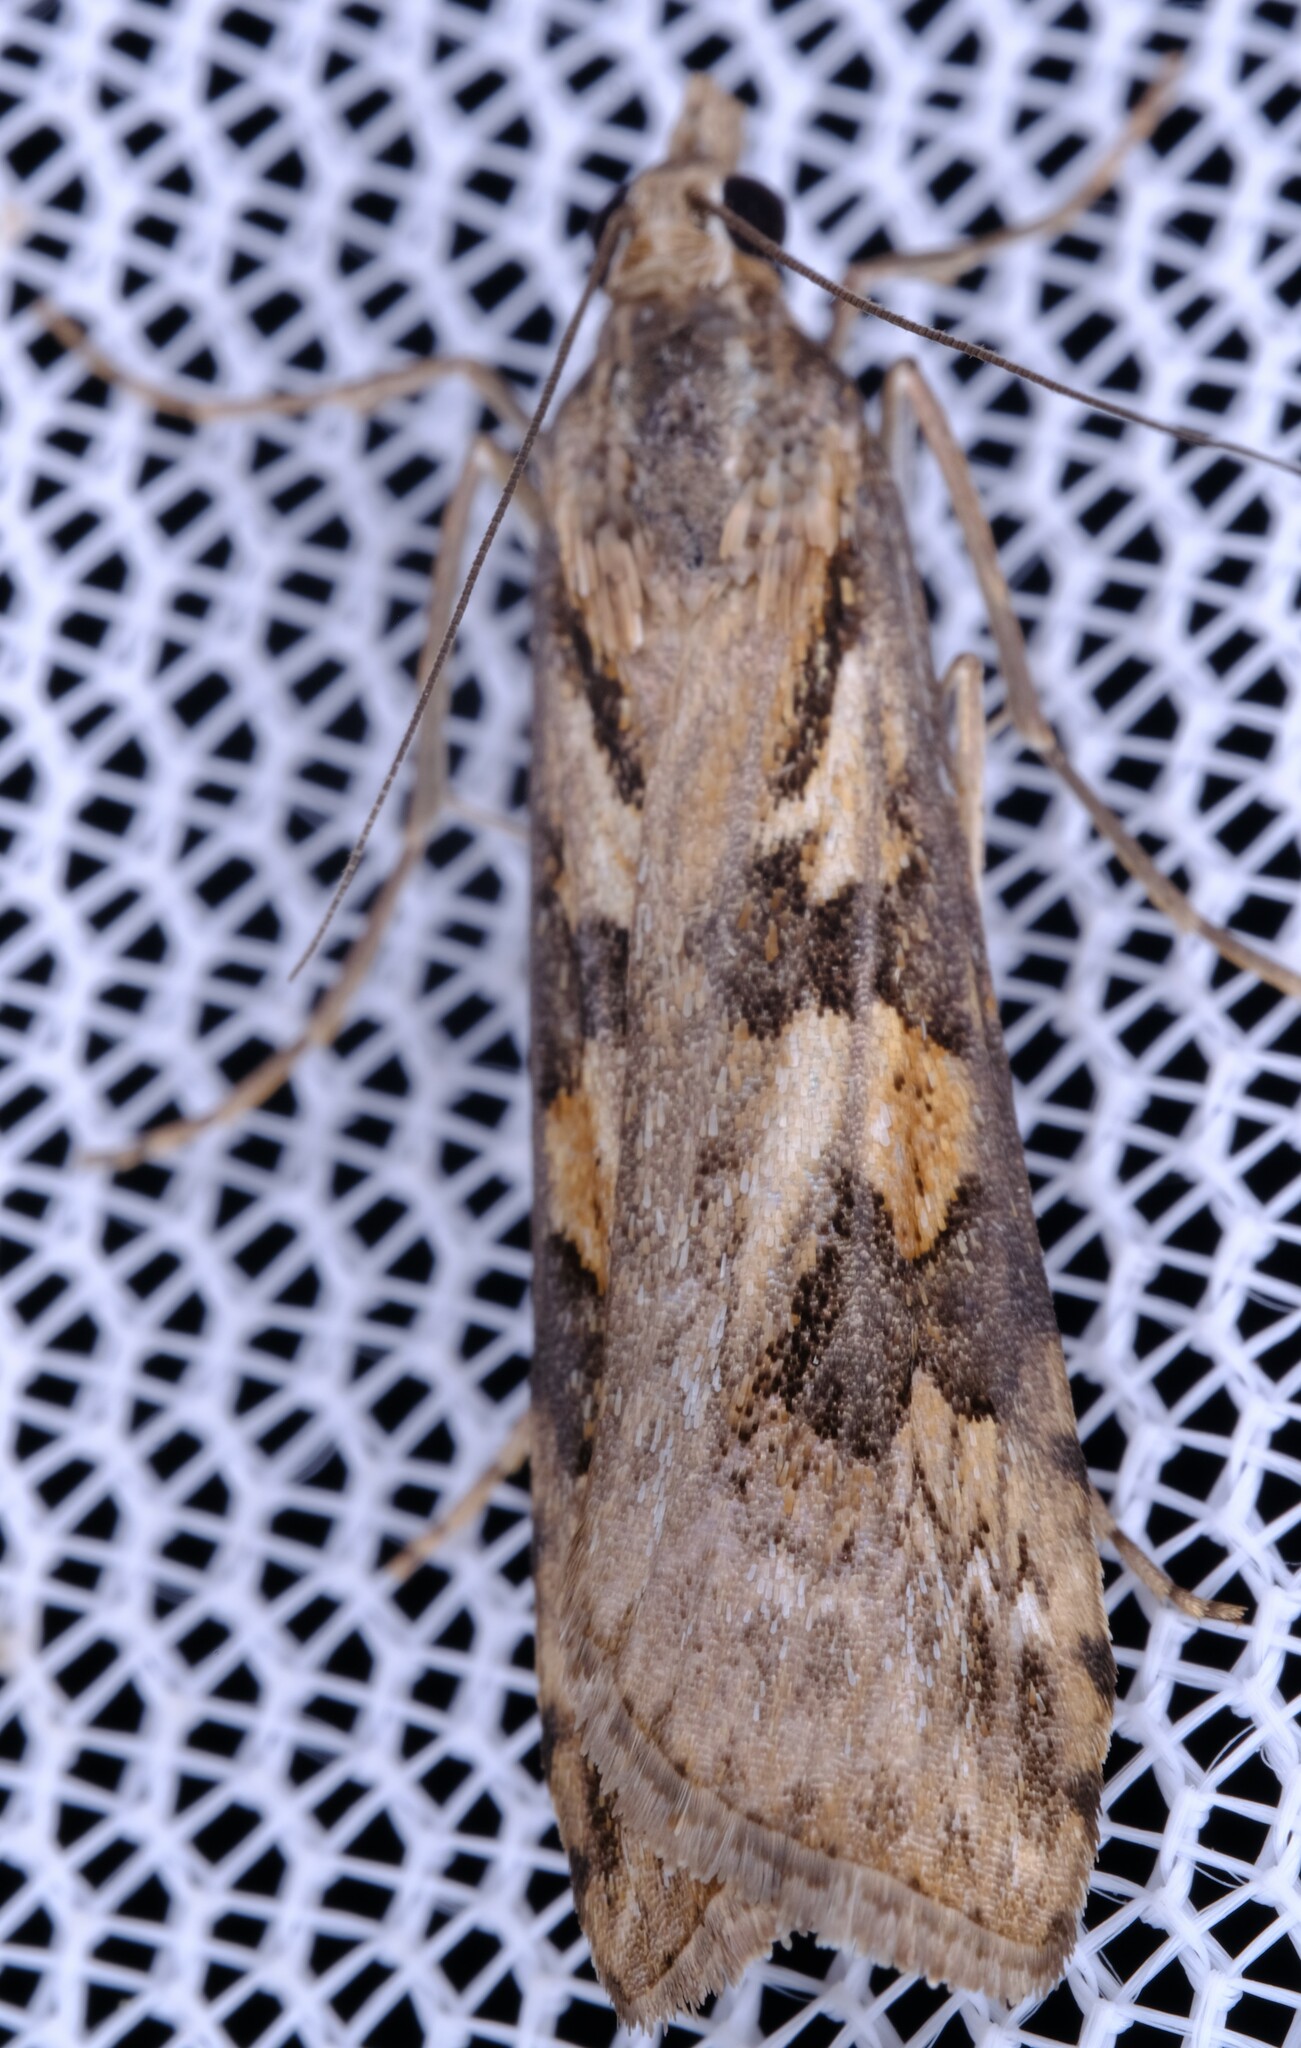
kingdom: Animalia
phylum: Arthropoda
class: Insecta
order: Lepidoptera
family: Crambidae
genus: Nomophila
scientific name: Nomophila corticalis
